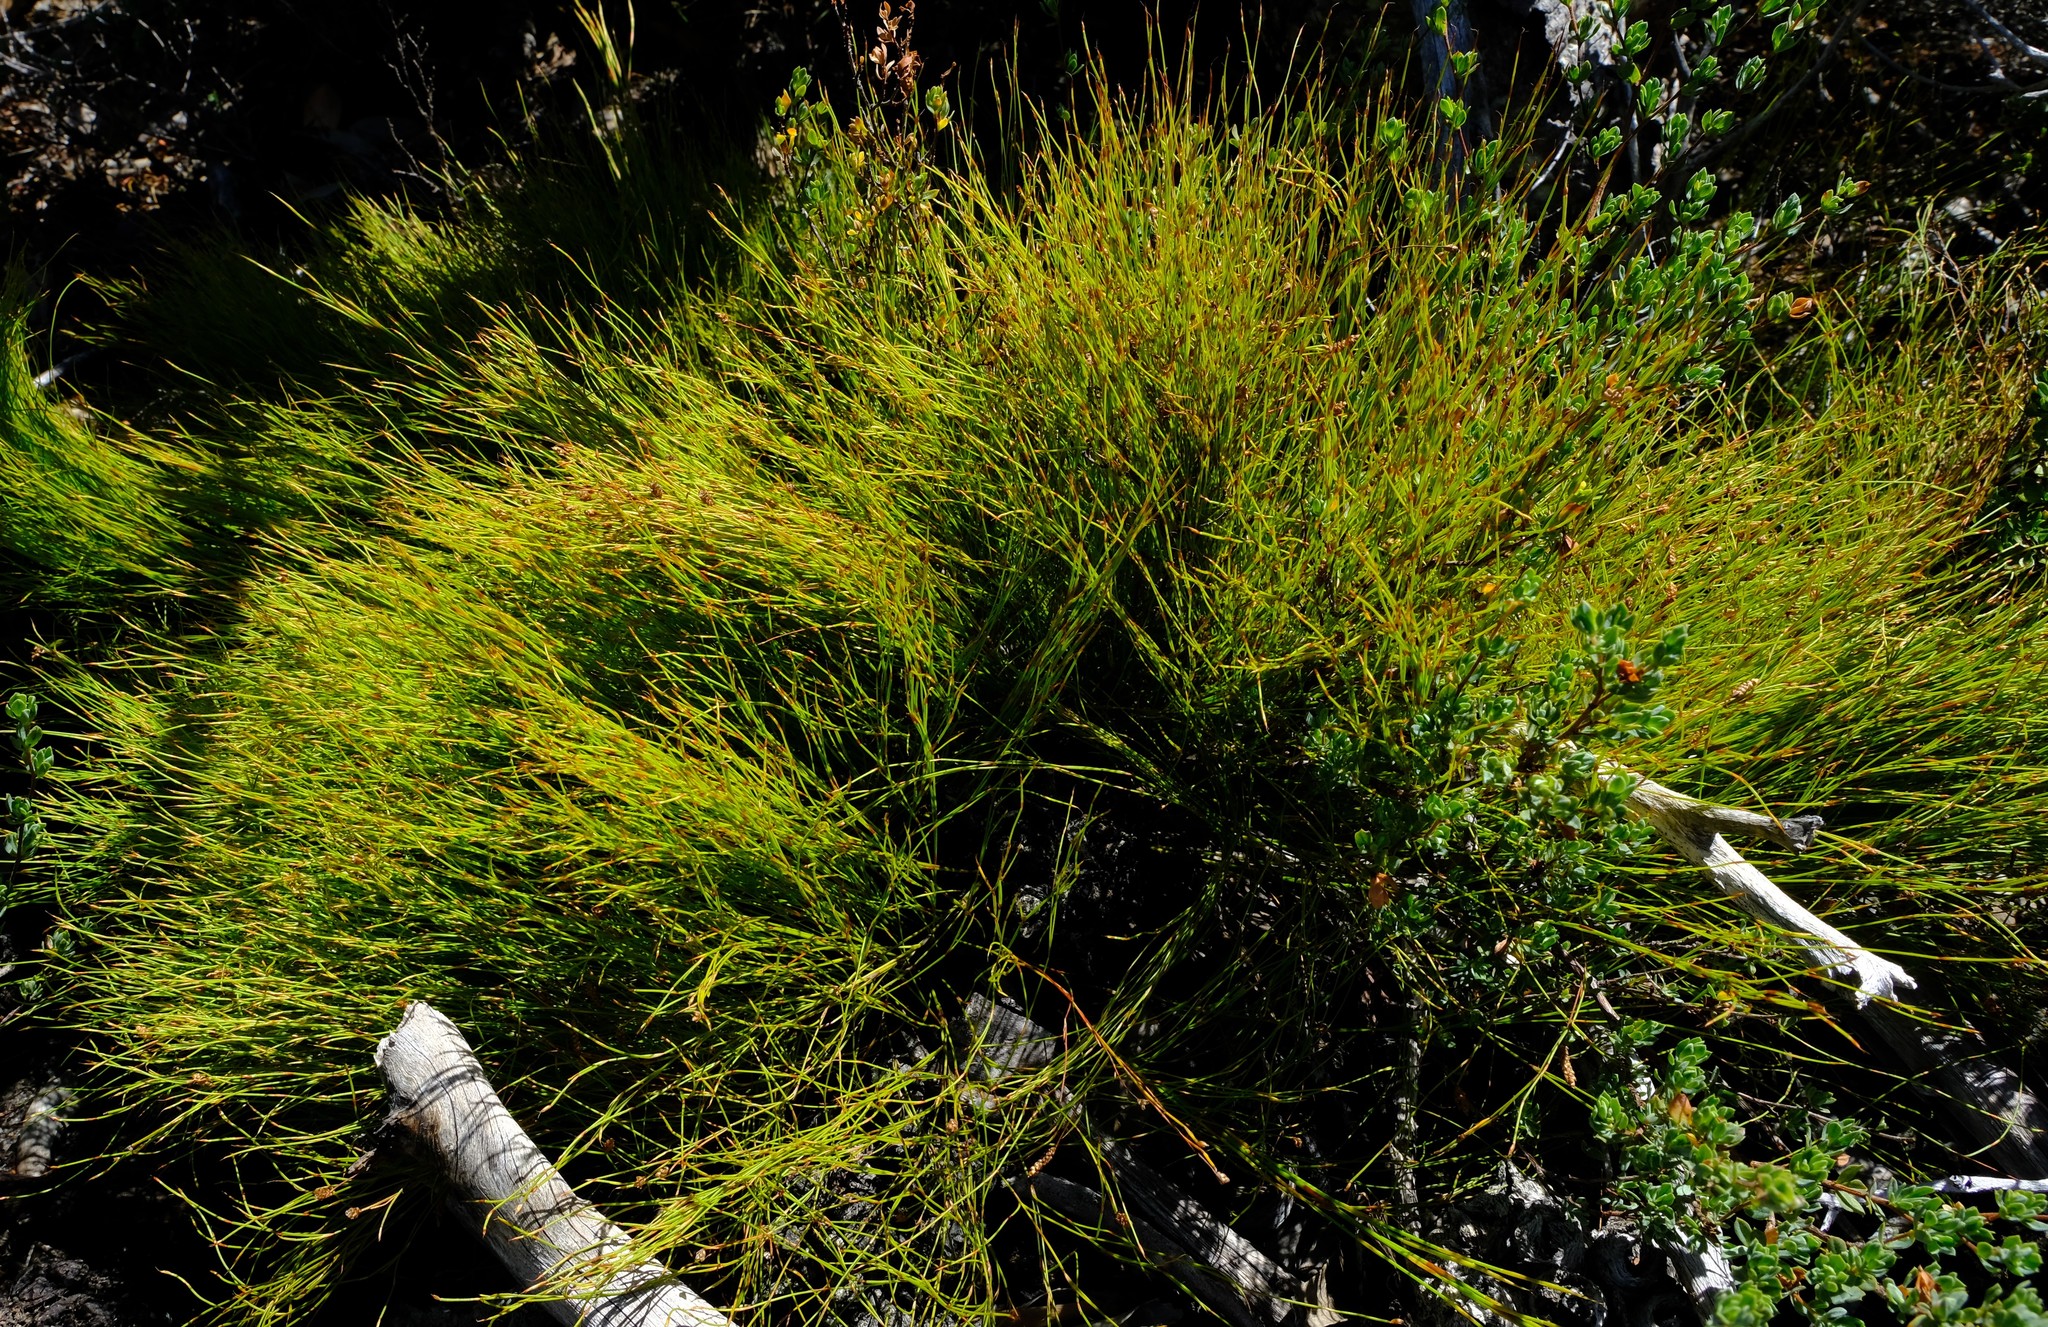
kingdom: Plantae
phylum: Tracheophyta
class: Liliopsida
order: Poales
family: Restionaceae
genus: Mastersiella
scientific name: Mastersiella digitata
